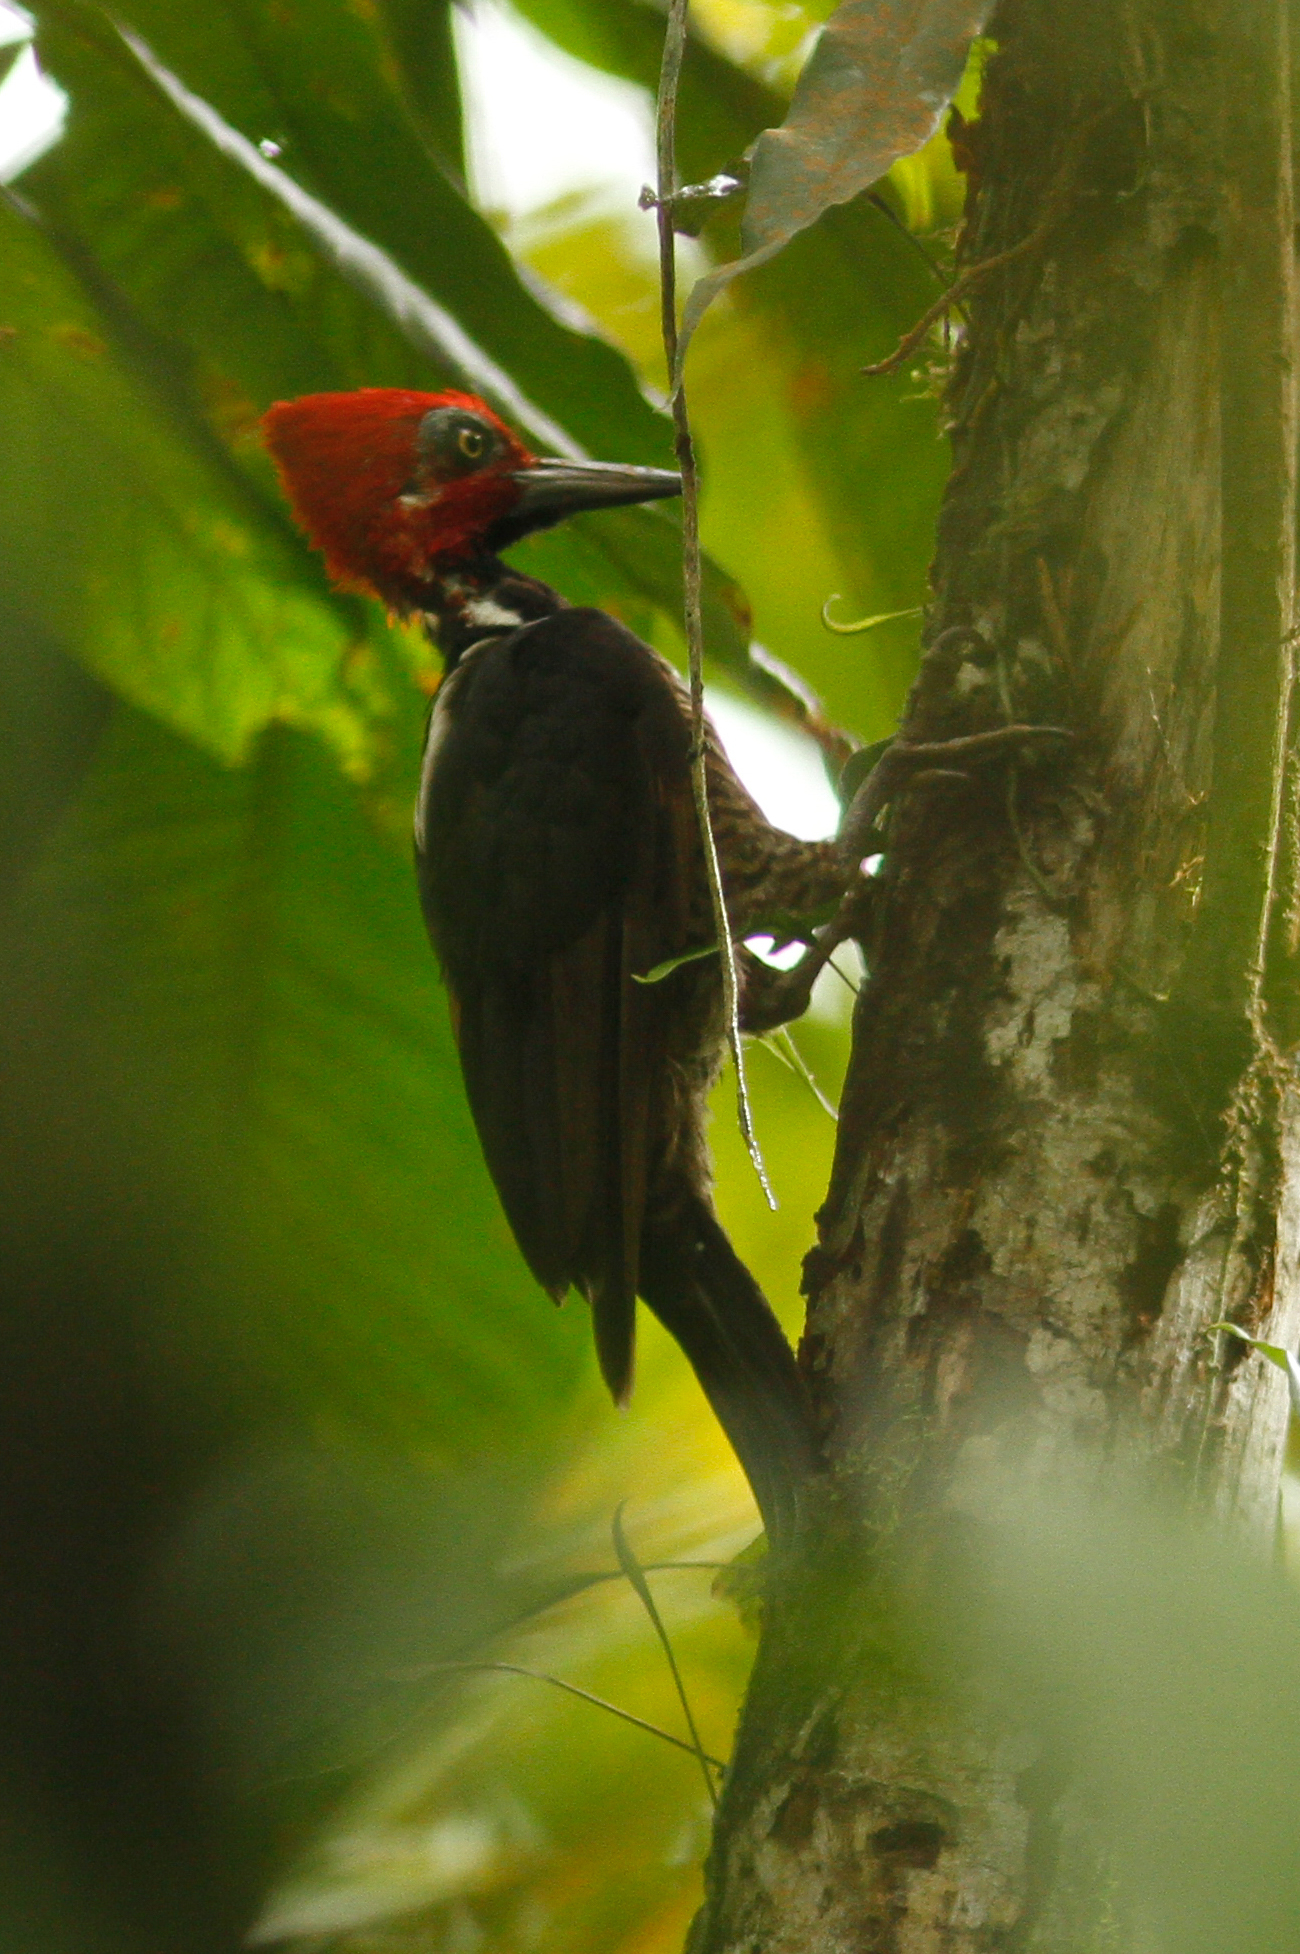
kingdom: Animalia
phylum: Chordata
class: Aves
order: Piciformes
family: Picidae
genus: Campephilus
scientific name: Campephilus gayaquilensis
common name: Guayaquil woodpecker
